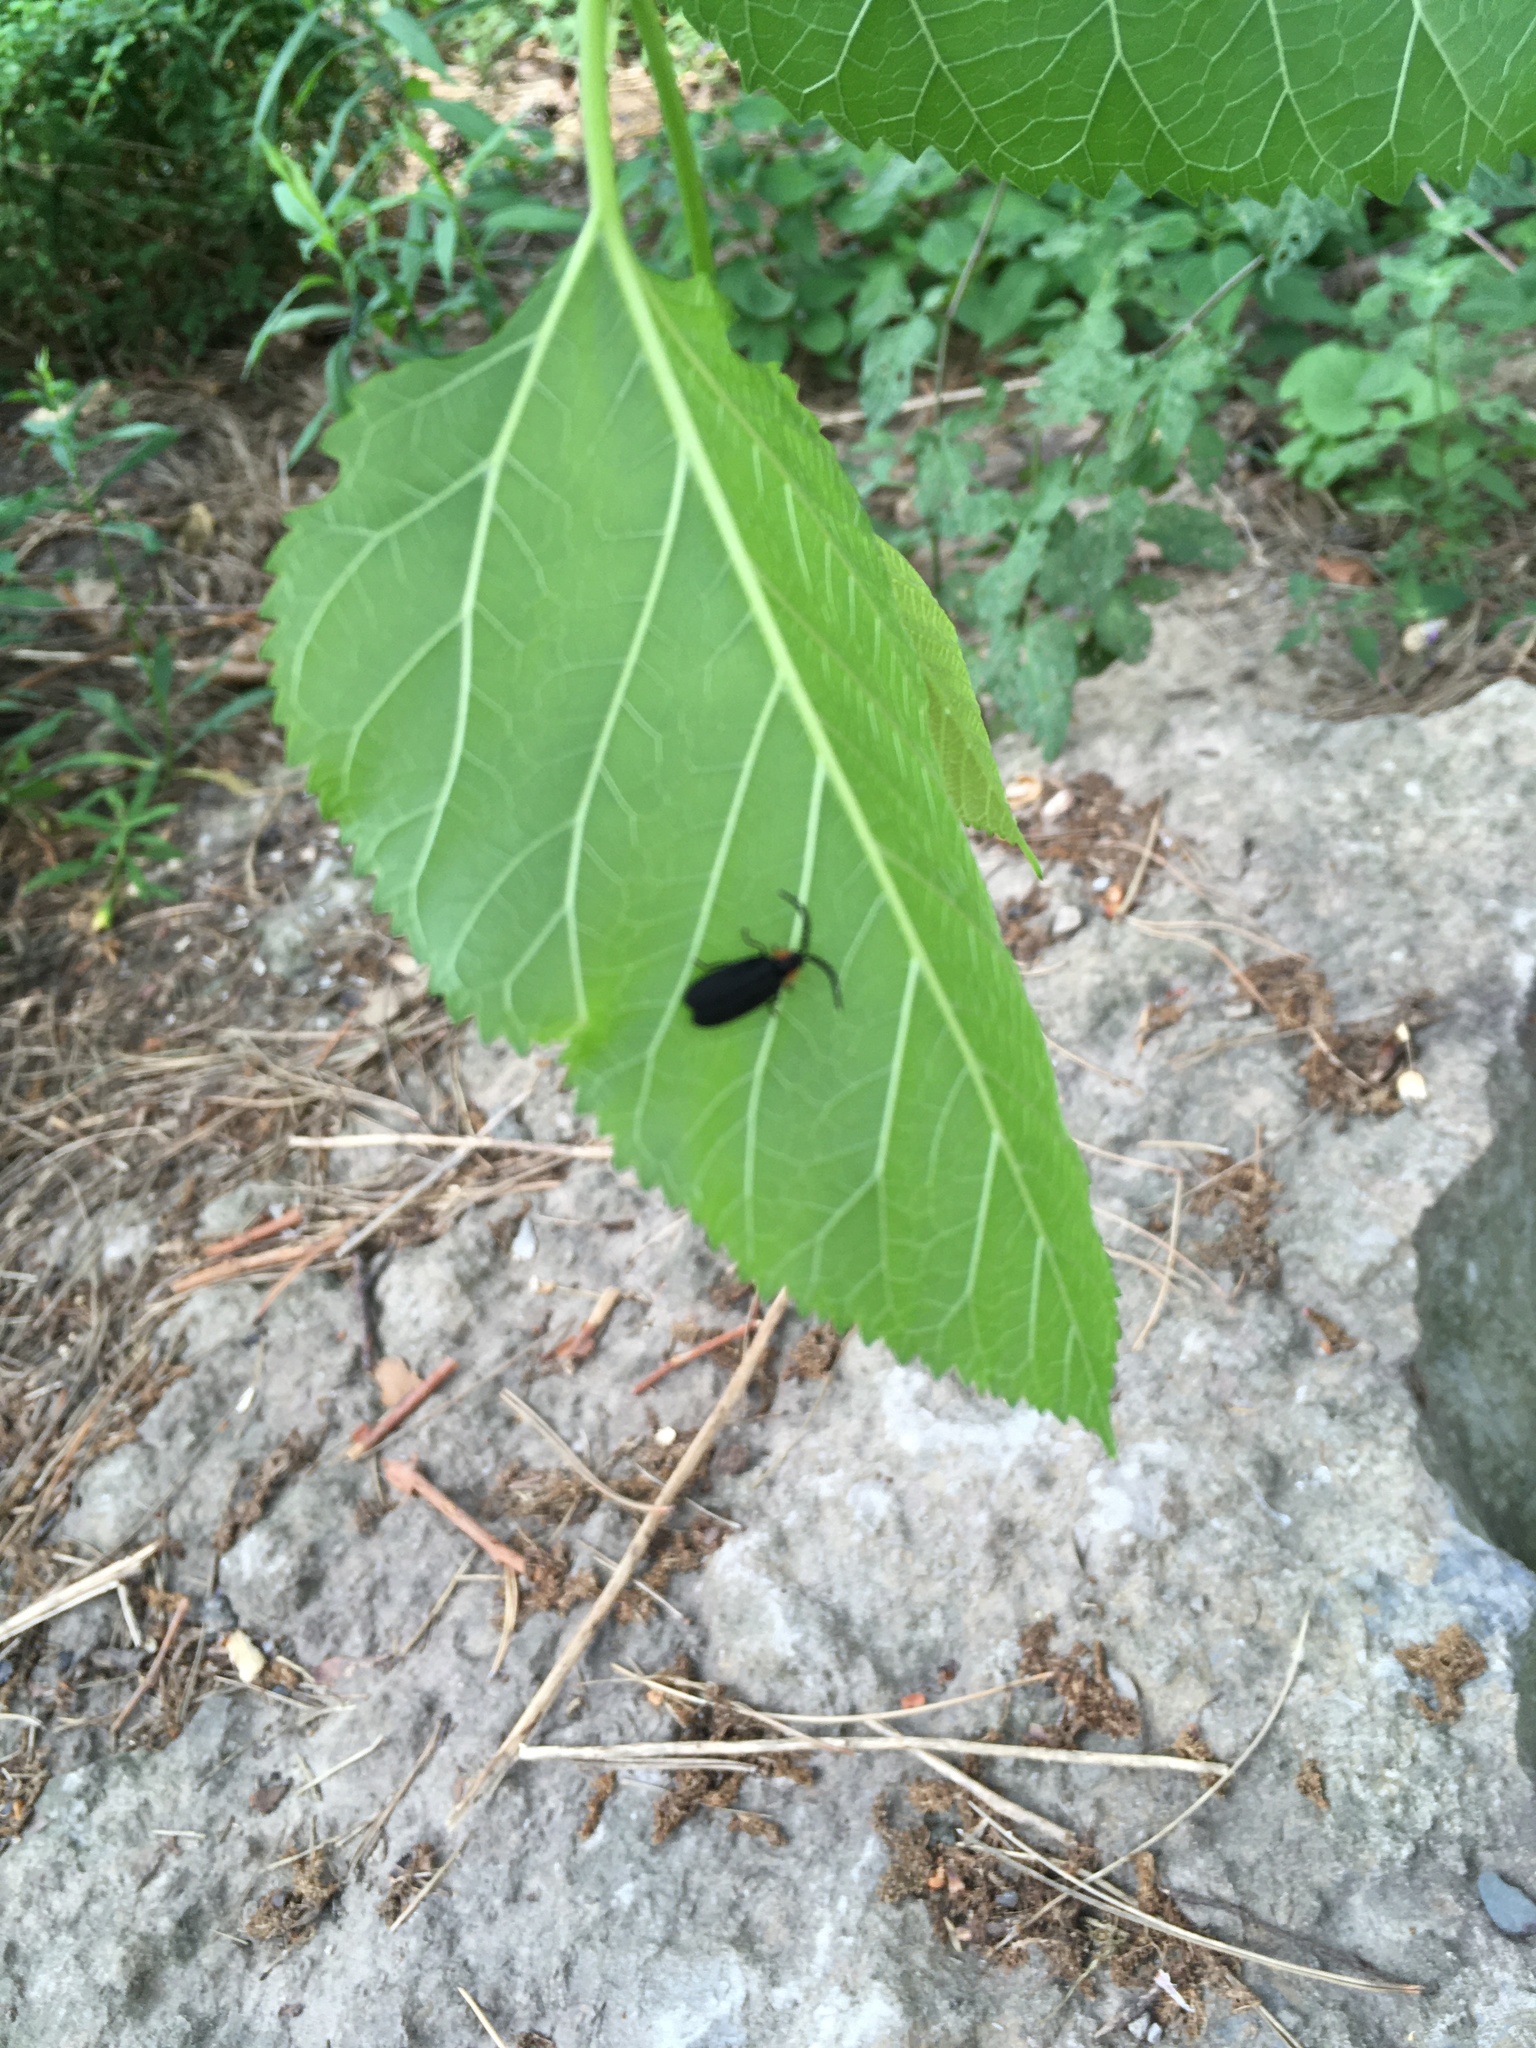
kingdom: Animalia
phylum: Arthropoda
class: Insecta
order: Coleoptera
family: Lampyridae
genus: Lucidota
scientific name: Lucidota atra
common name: Black firefly
